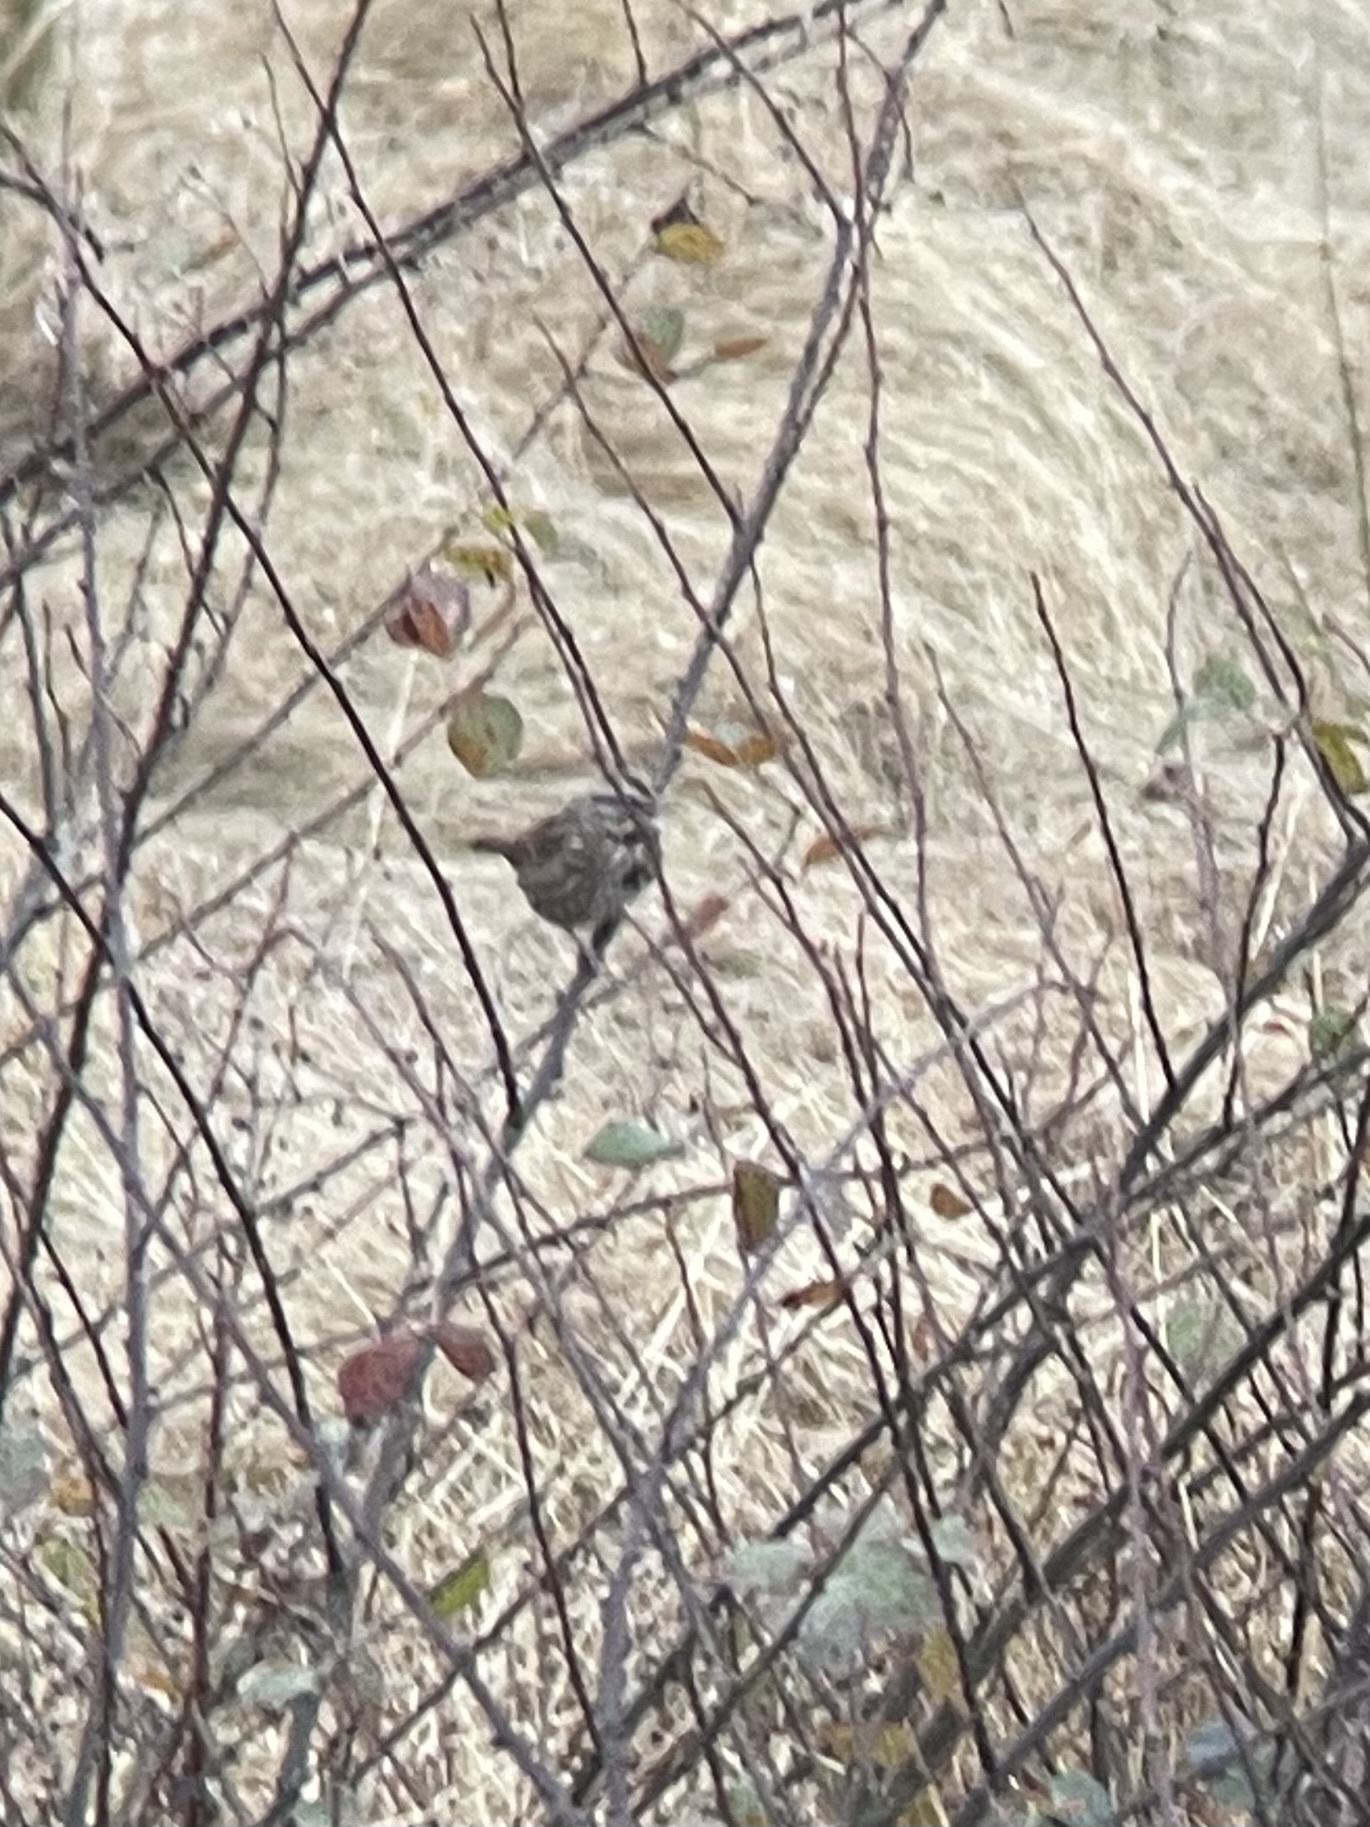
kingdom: Animalia
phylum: Chordata
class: Aves
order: Passeriformes
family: Passerellidae
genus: Melospiza
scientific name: Melospiza melodia
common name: Song sparrow
